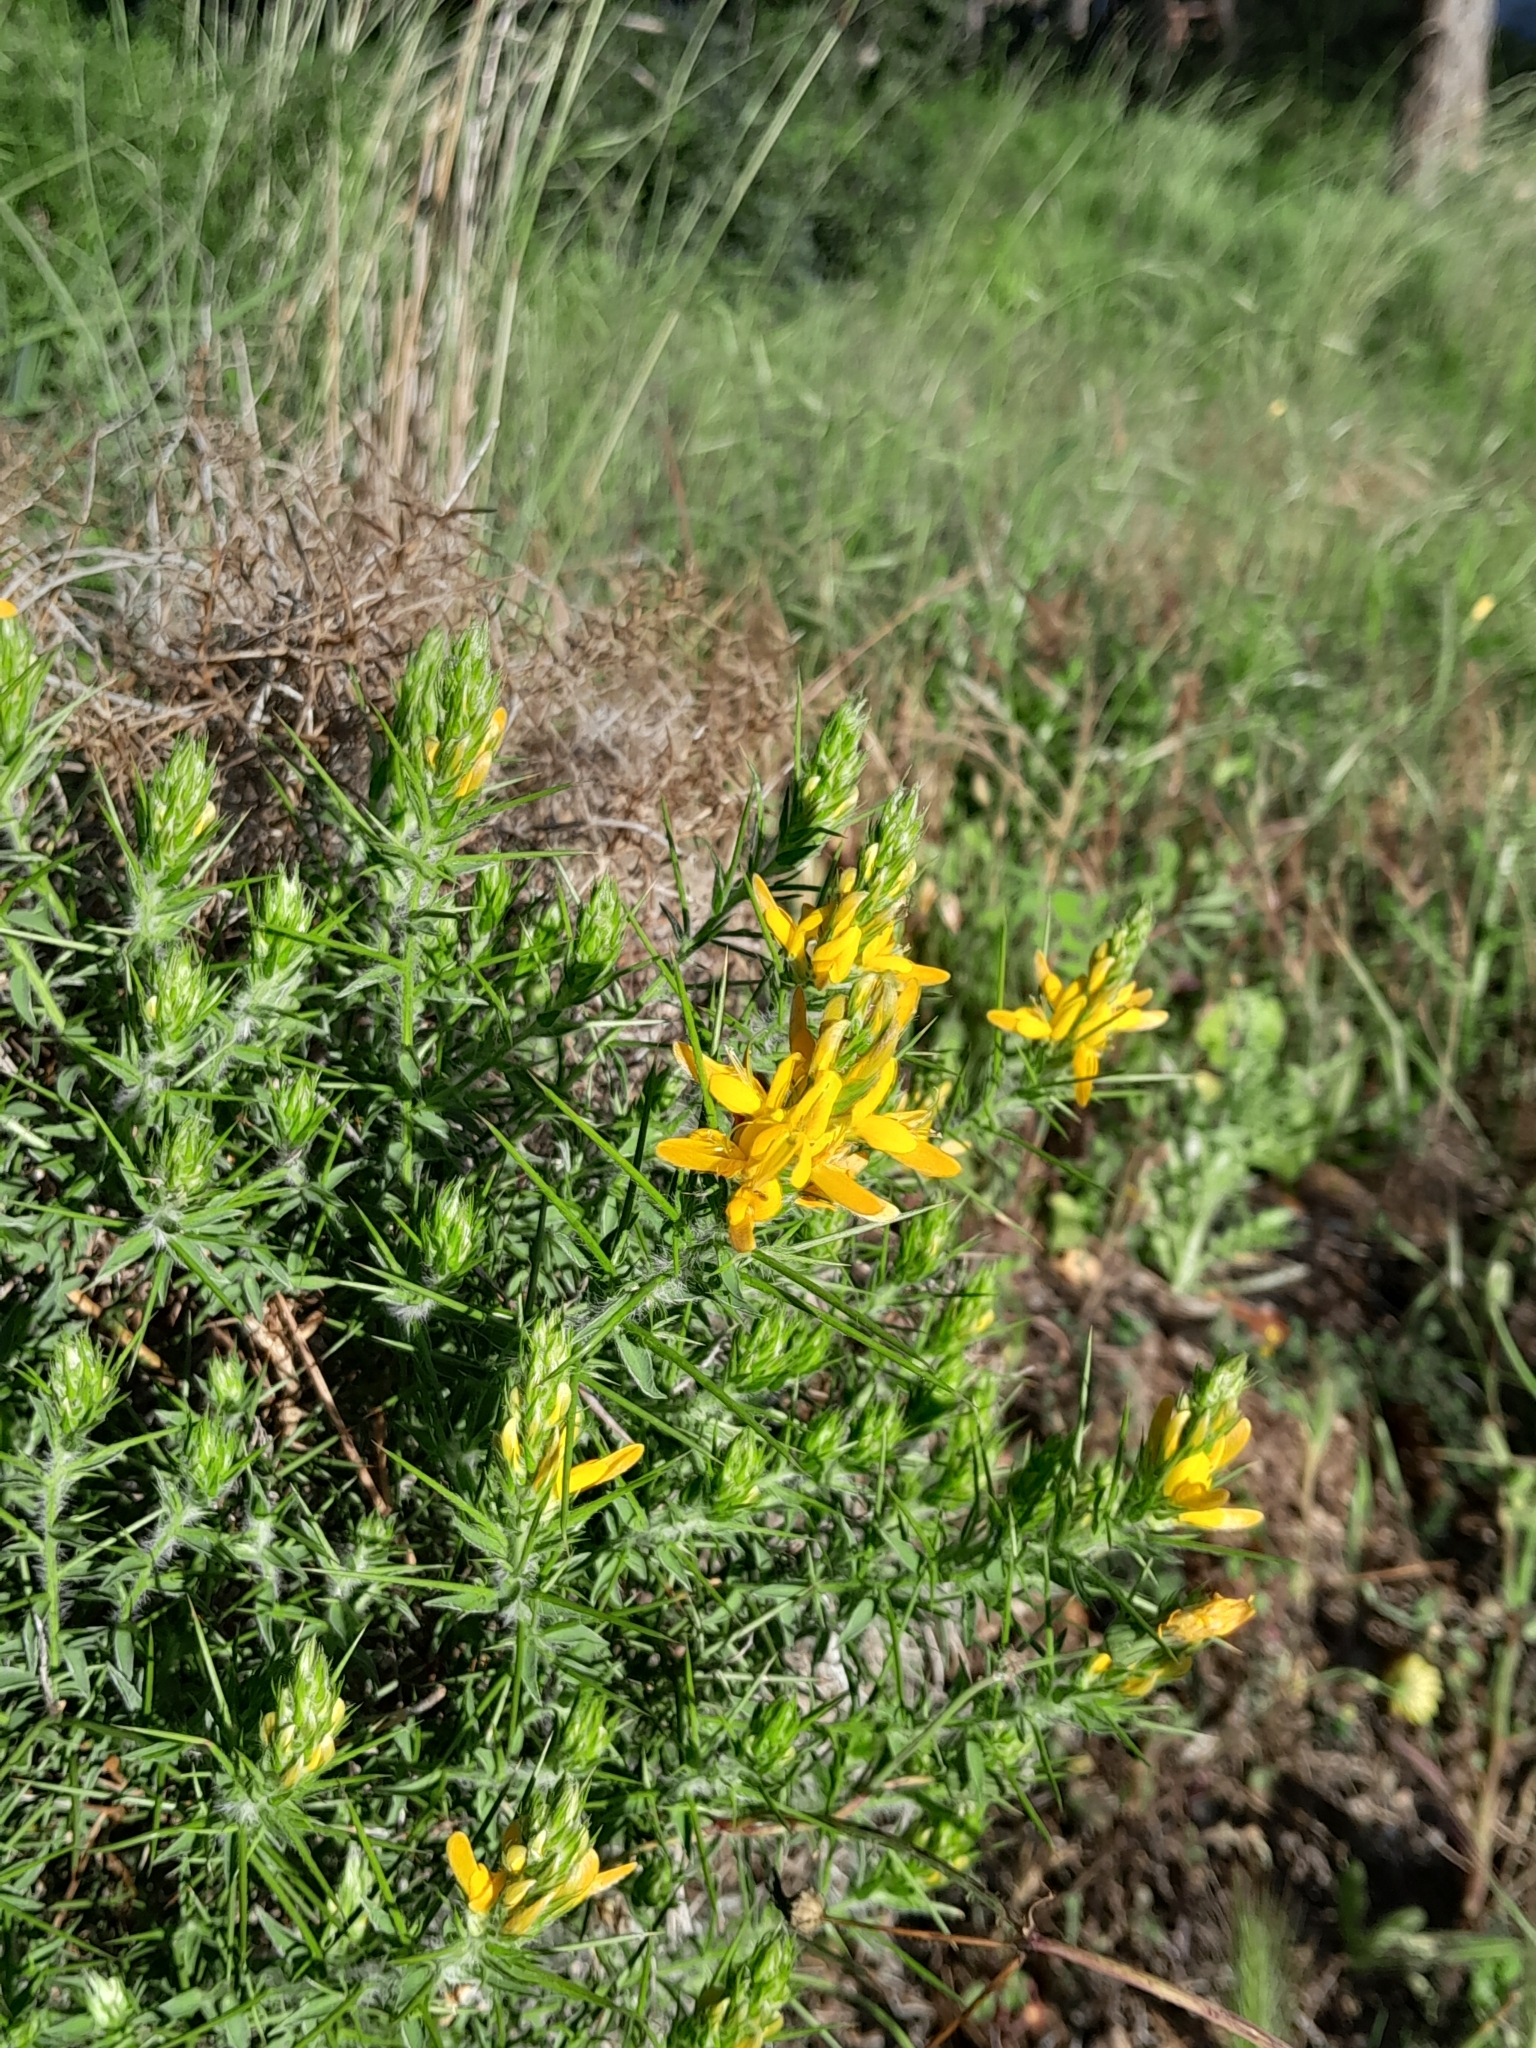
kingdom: Plantae
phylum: Tracheophyta
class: Magnoliopsida
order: Fabales
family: Fabaceae
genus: Genista
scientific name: Genista hirsuta
